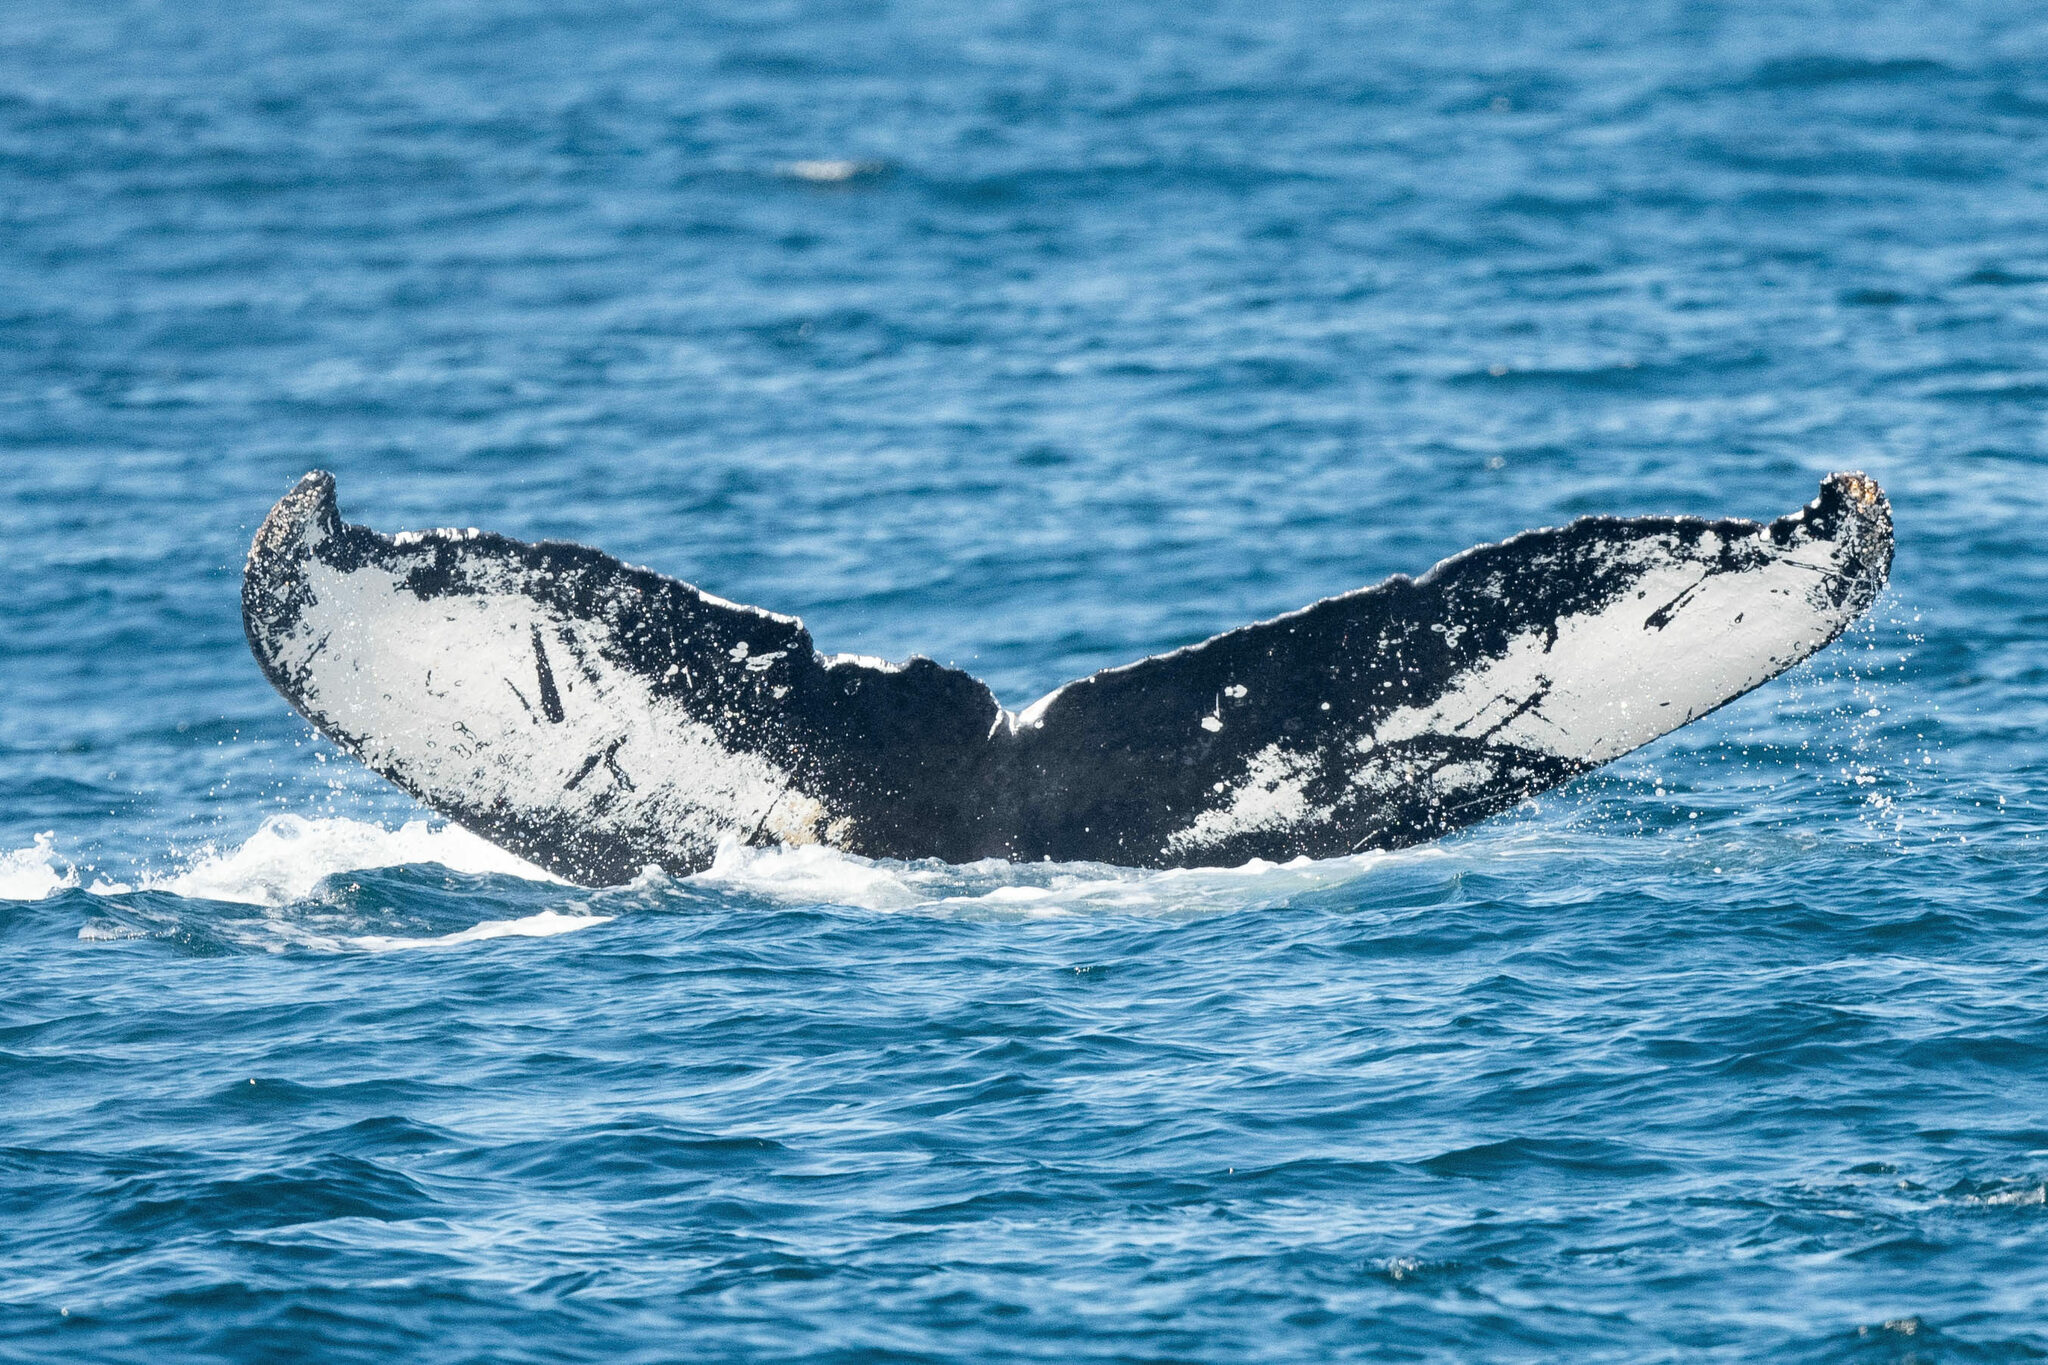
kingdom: Animalia
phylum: Chordata
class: Mammalia
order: Cetacea
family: Balaenopteridae
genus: Megaptera
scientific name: Megaptera novaeangliae
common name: Humpback whale
